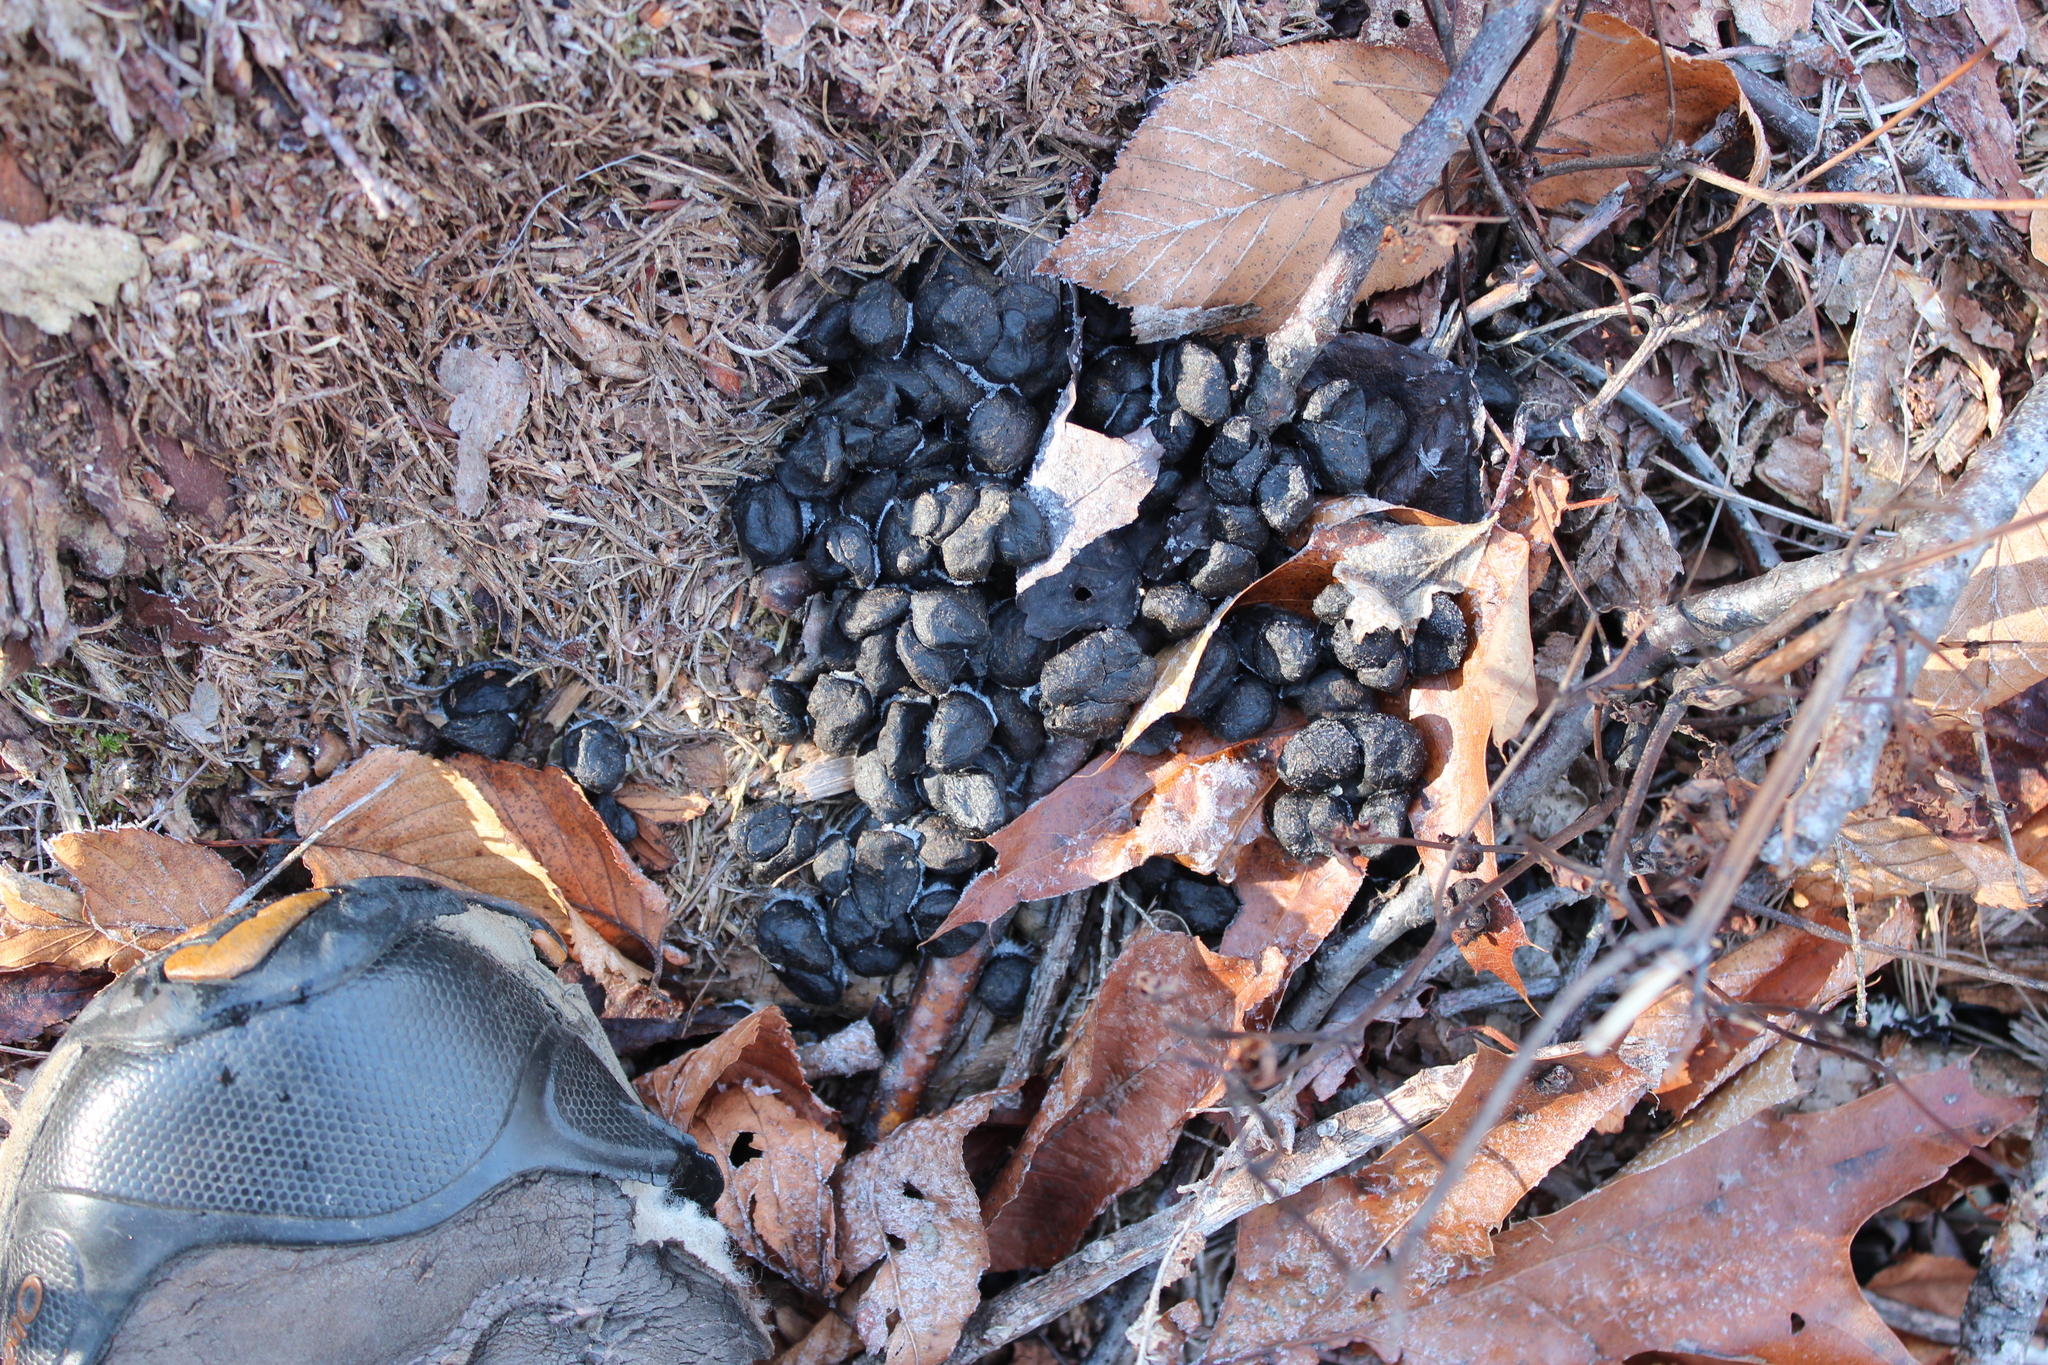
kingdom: Animalia
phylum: Chordata
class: Mammalia
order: Artiodactyla
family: Cervidae
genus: Odocoileus
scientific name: Odocoileus virginianus
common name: White-tailed deer
